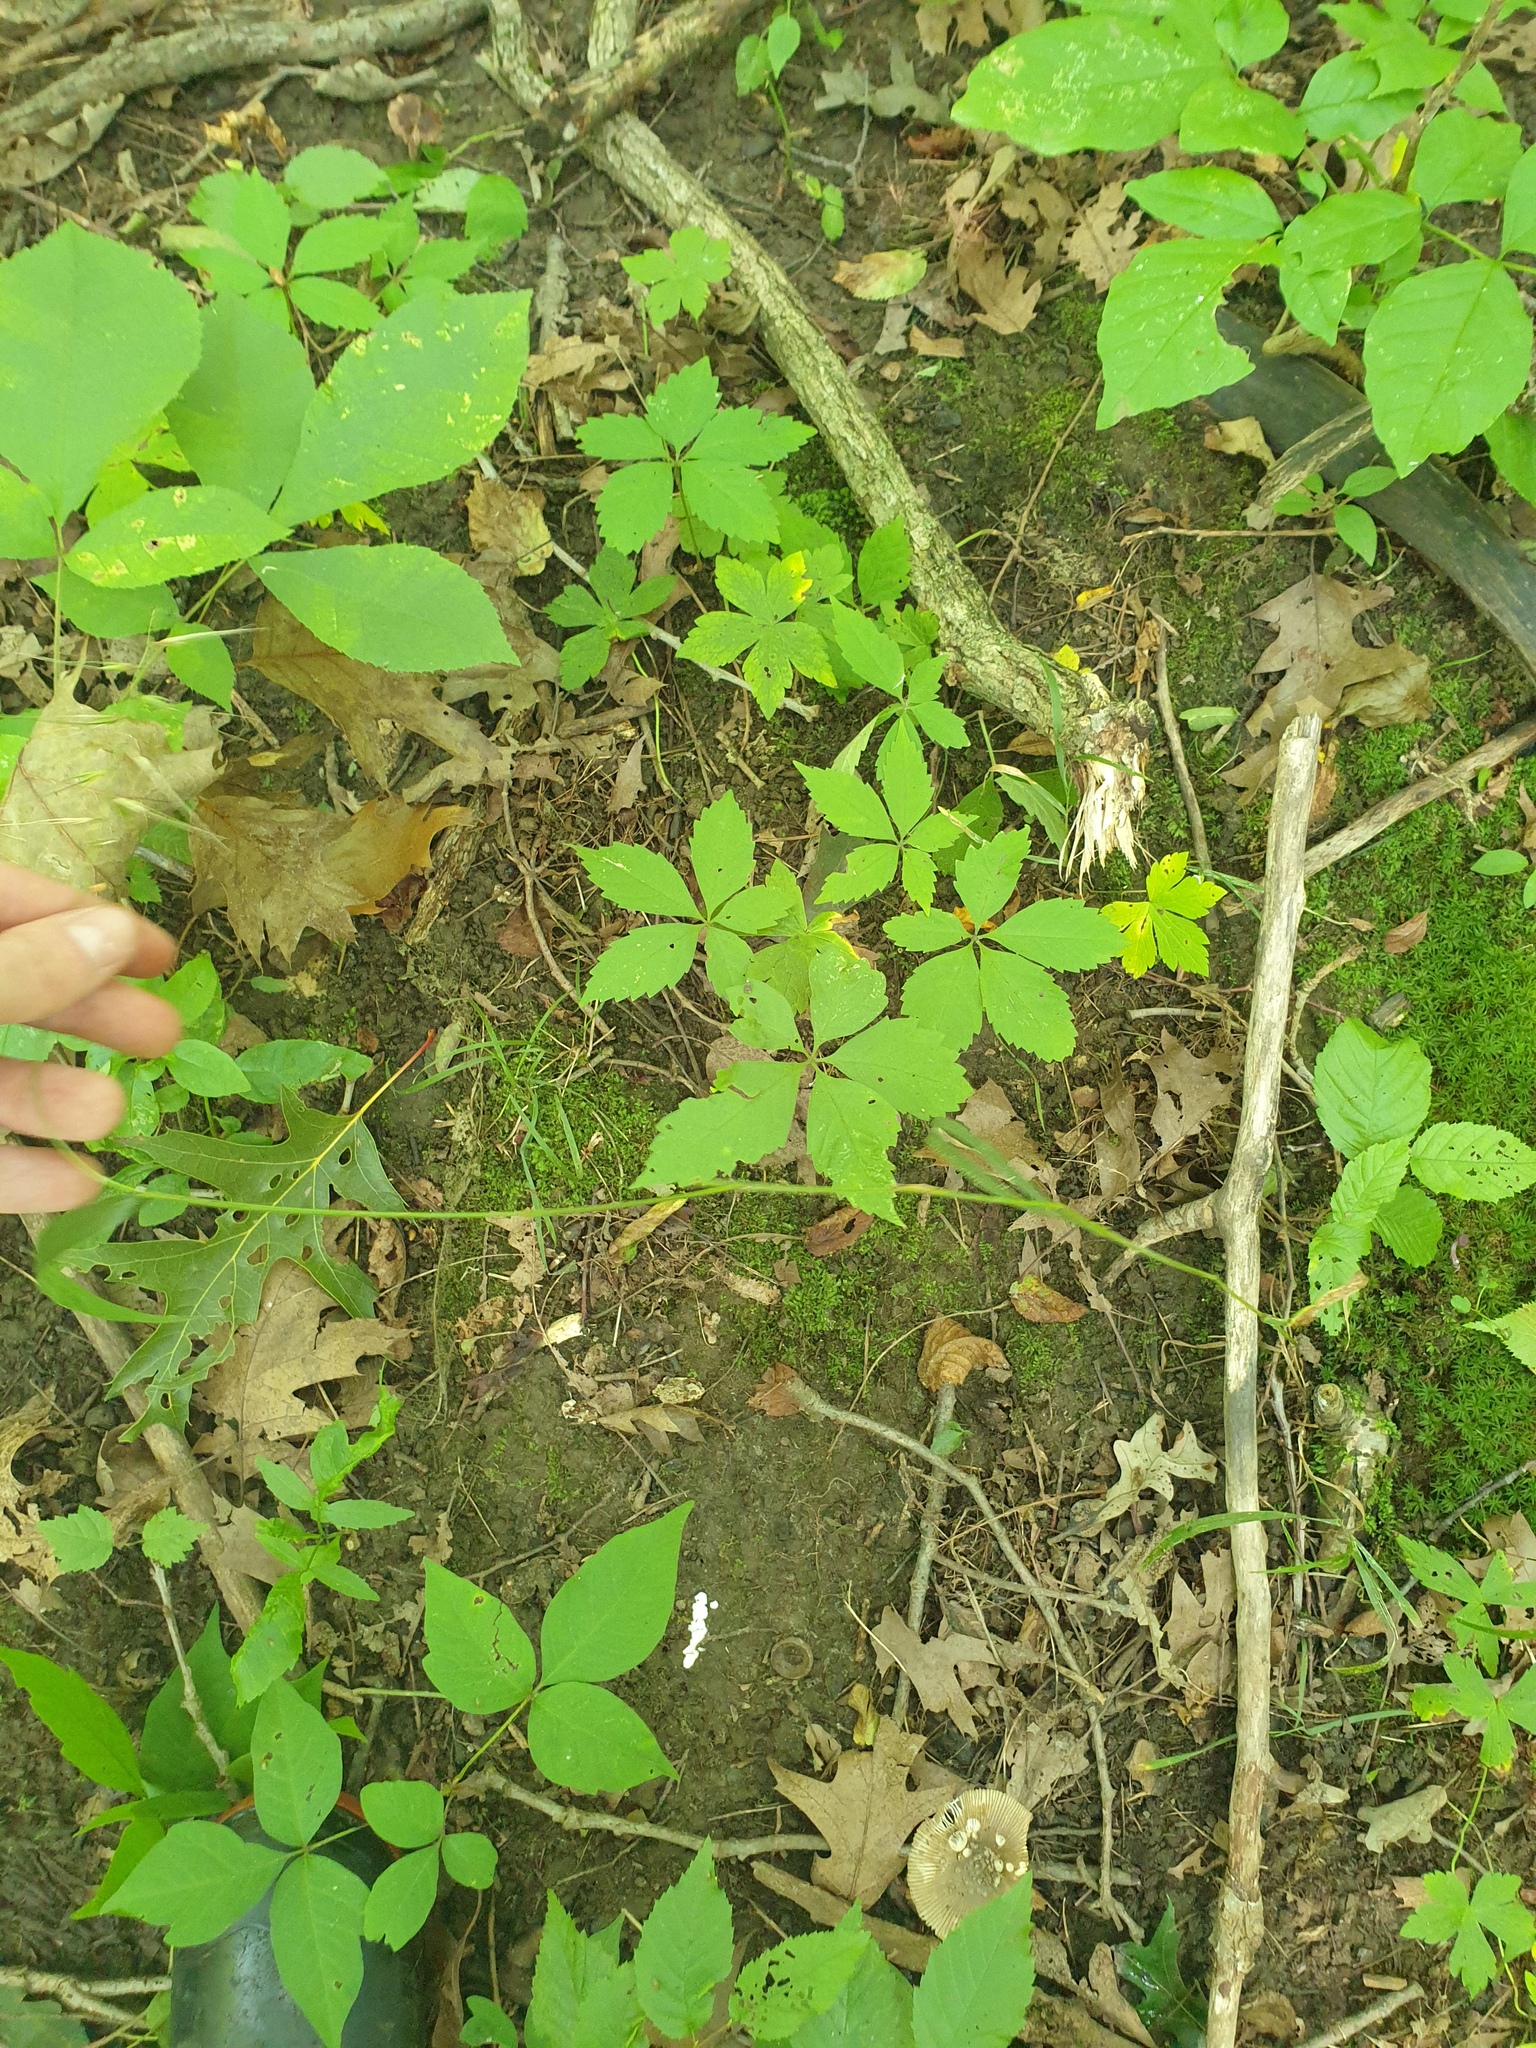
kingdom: Plantae
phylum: Tracheophyta
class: Liliopsida
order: Poales
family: Poaceae
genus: Elymus
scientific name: Elymus hystrix
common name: Bottlebrush grass
